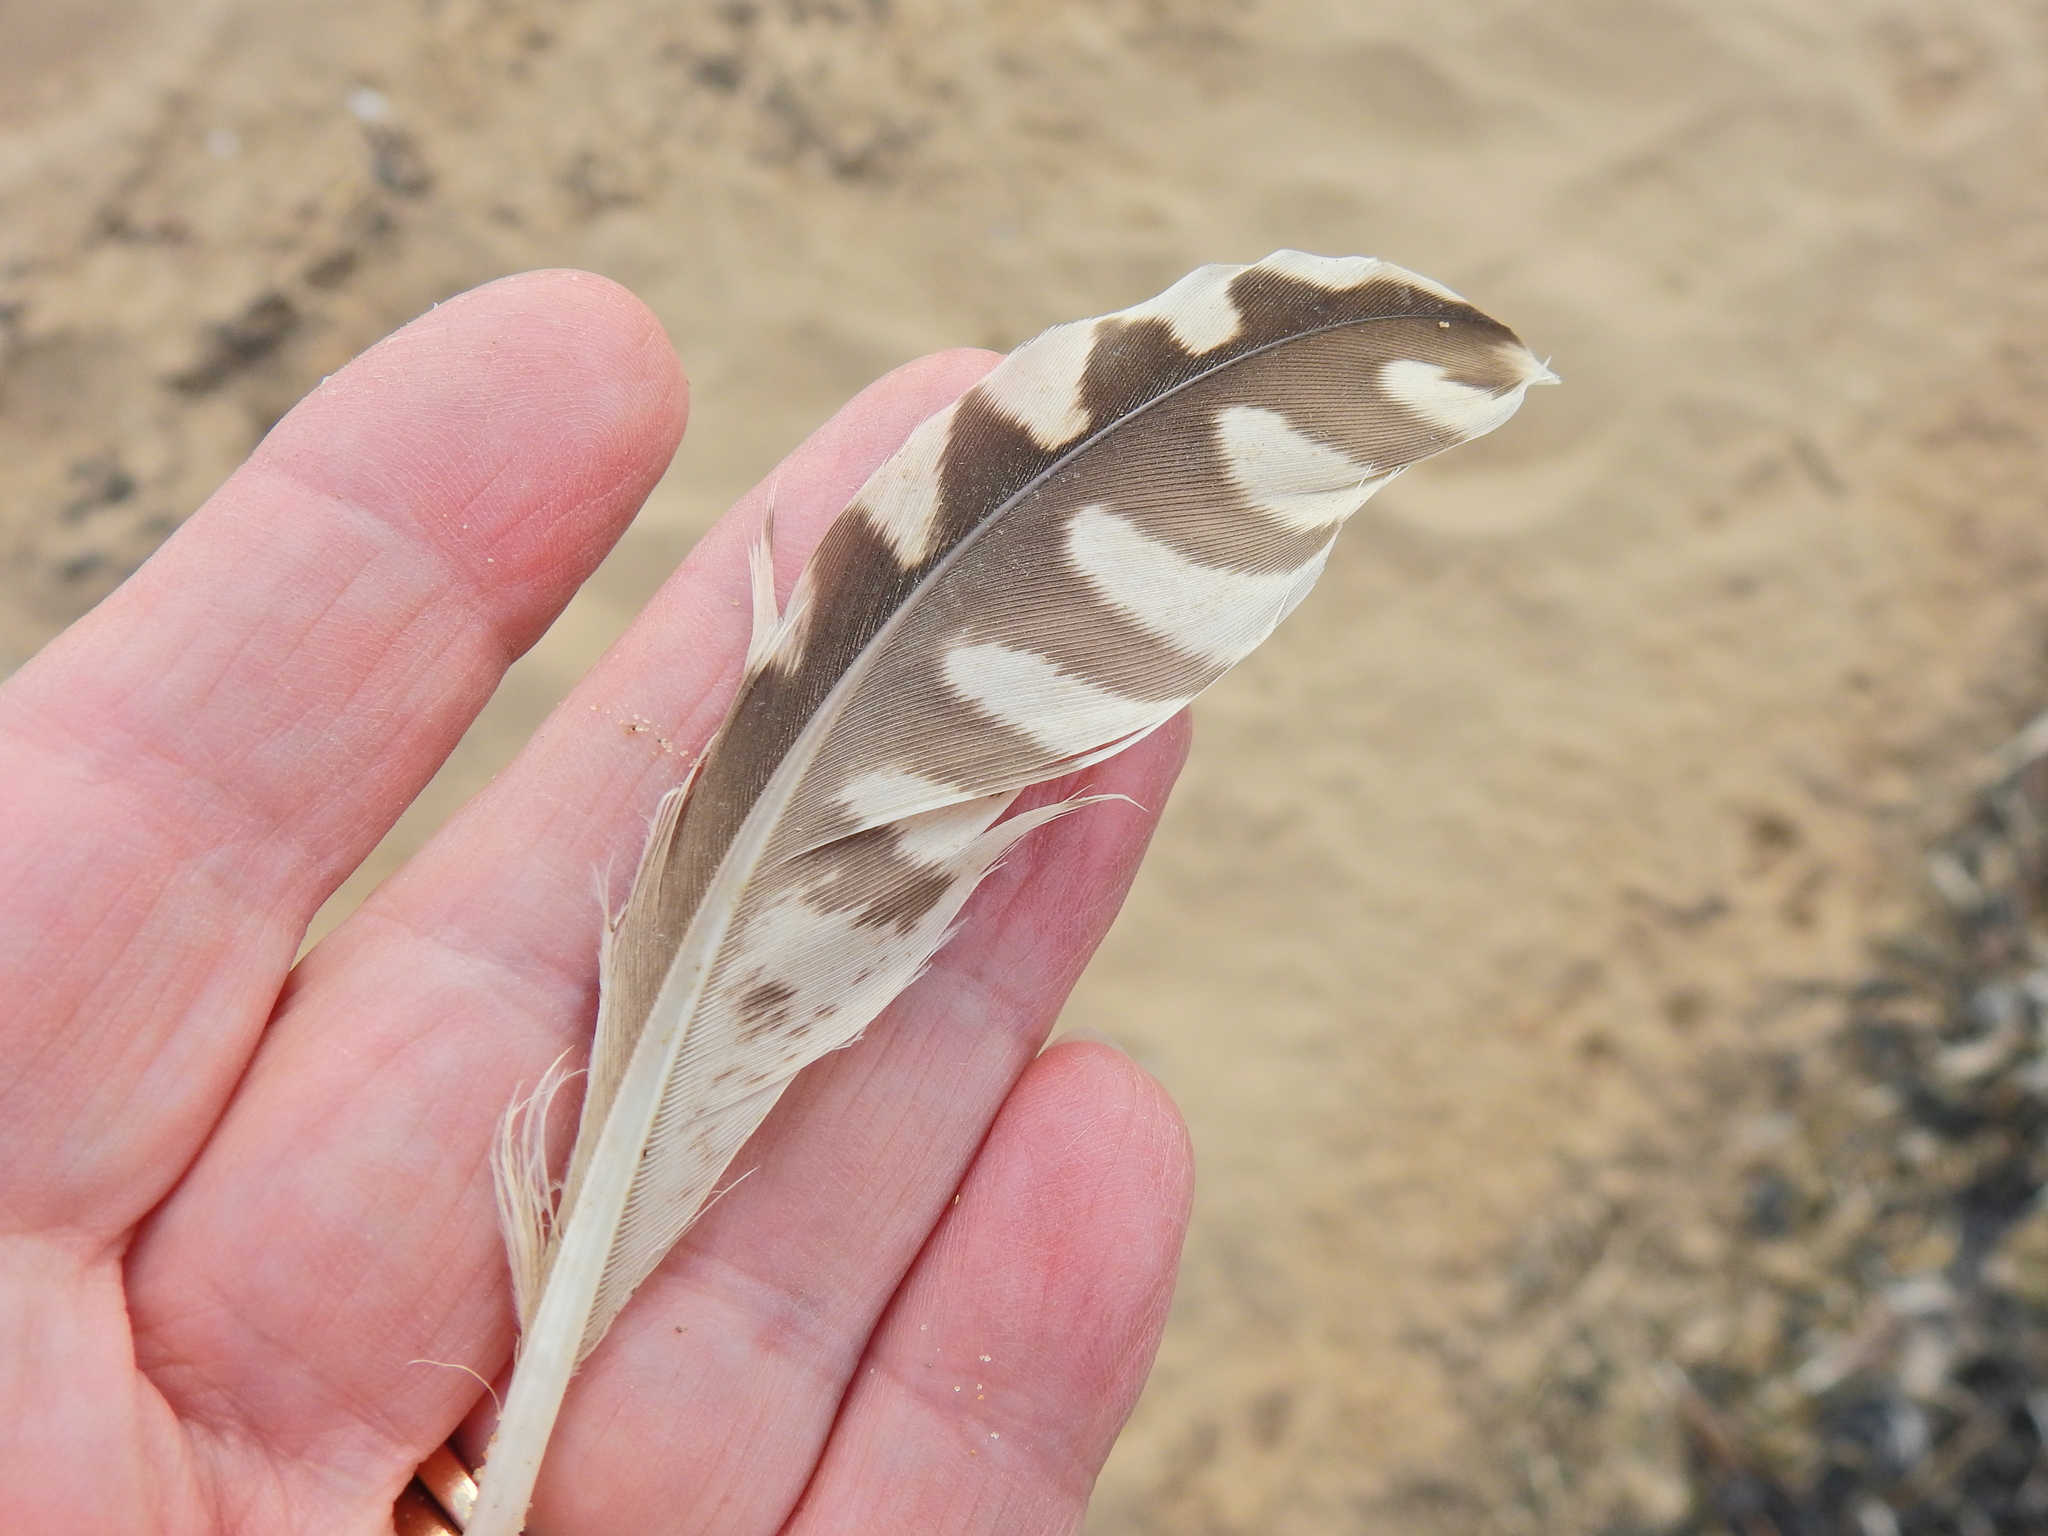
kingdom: Animalia
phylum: Chordata
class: Aves
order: Charadriiformes
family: Scolopacidae
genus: Numenius
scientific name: Numenius arquata
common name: Eurasian curlew
